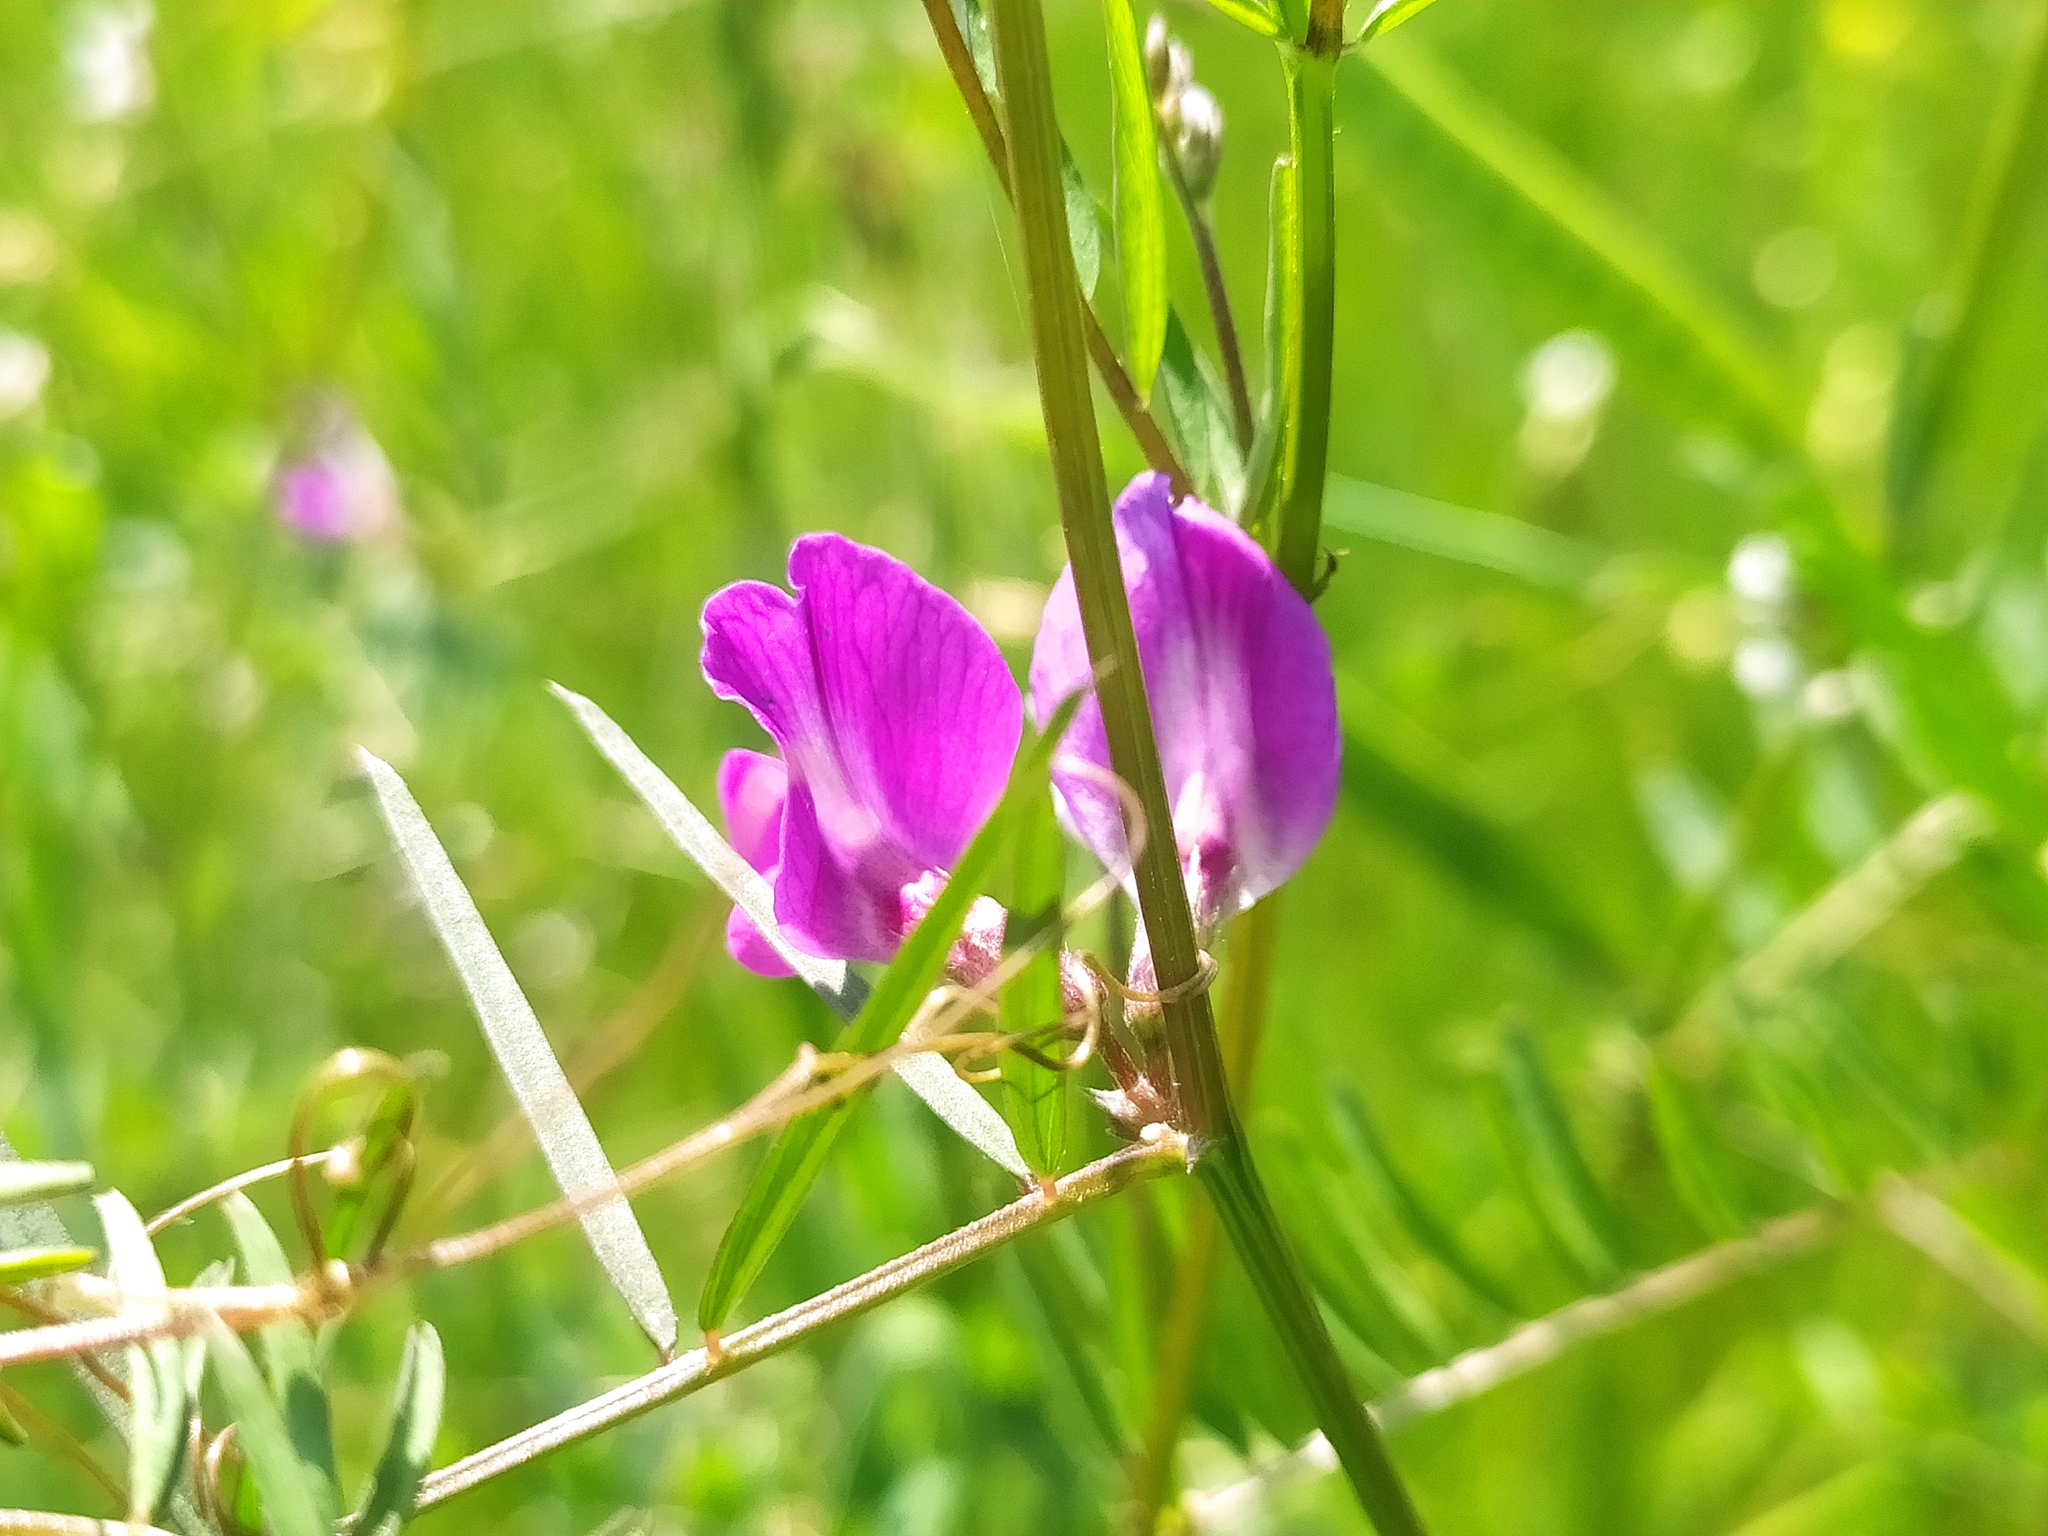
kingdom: Plantae
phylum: Tracheophyta
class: Magnoliopsida
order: Fabales
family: Fabaceae
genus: Vicia
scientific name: Vicia sativa
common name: Garden vetch
